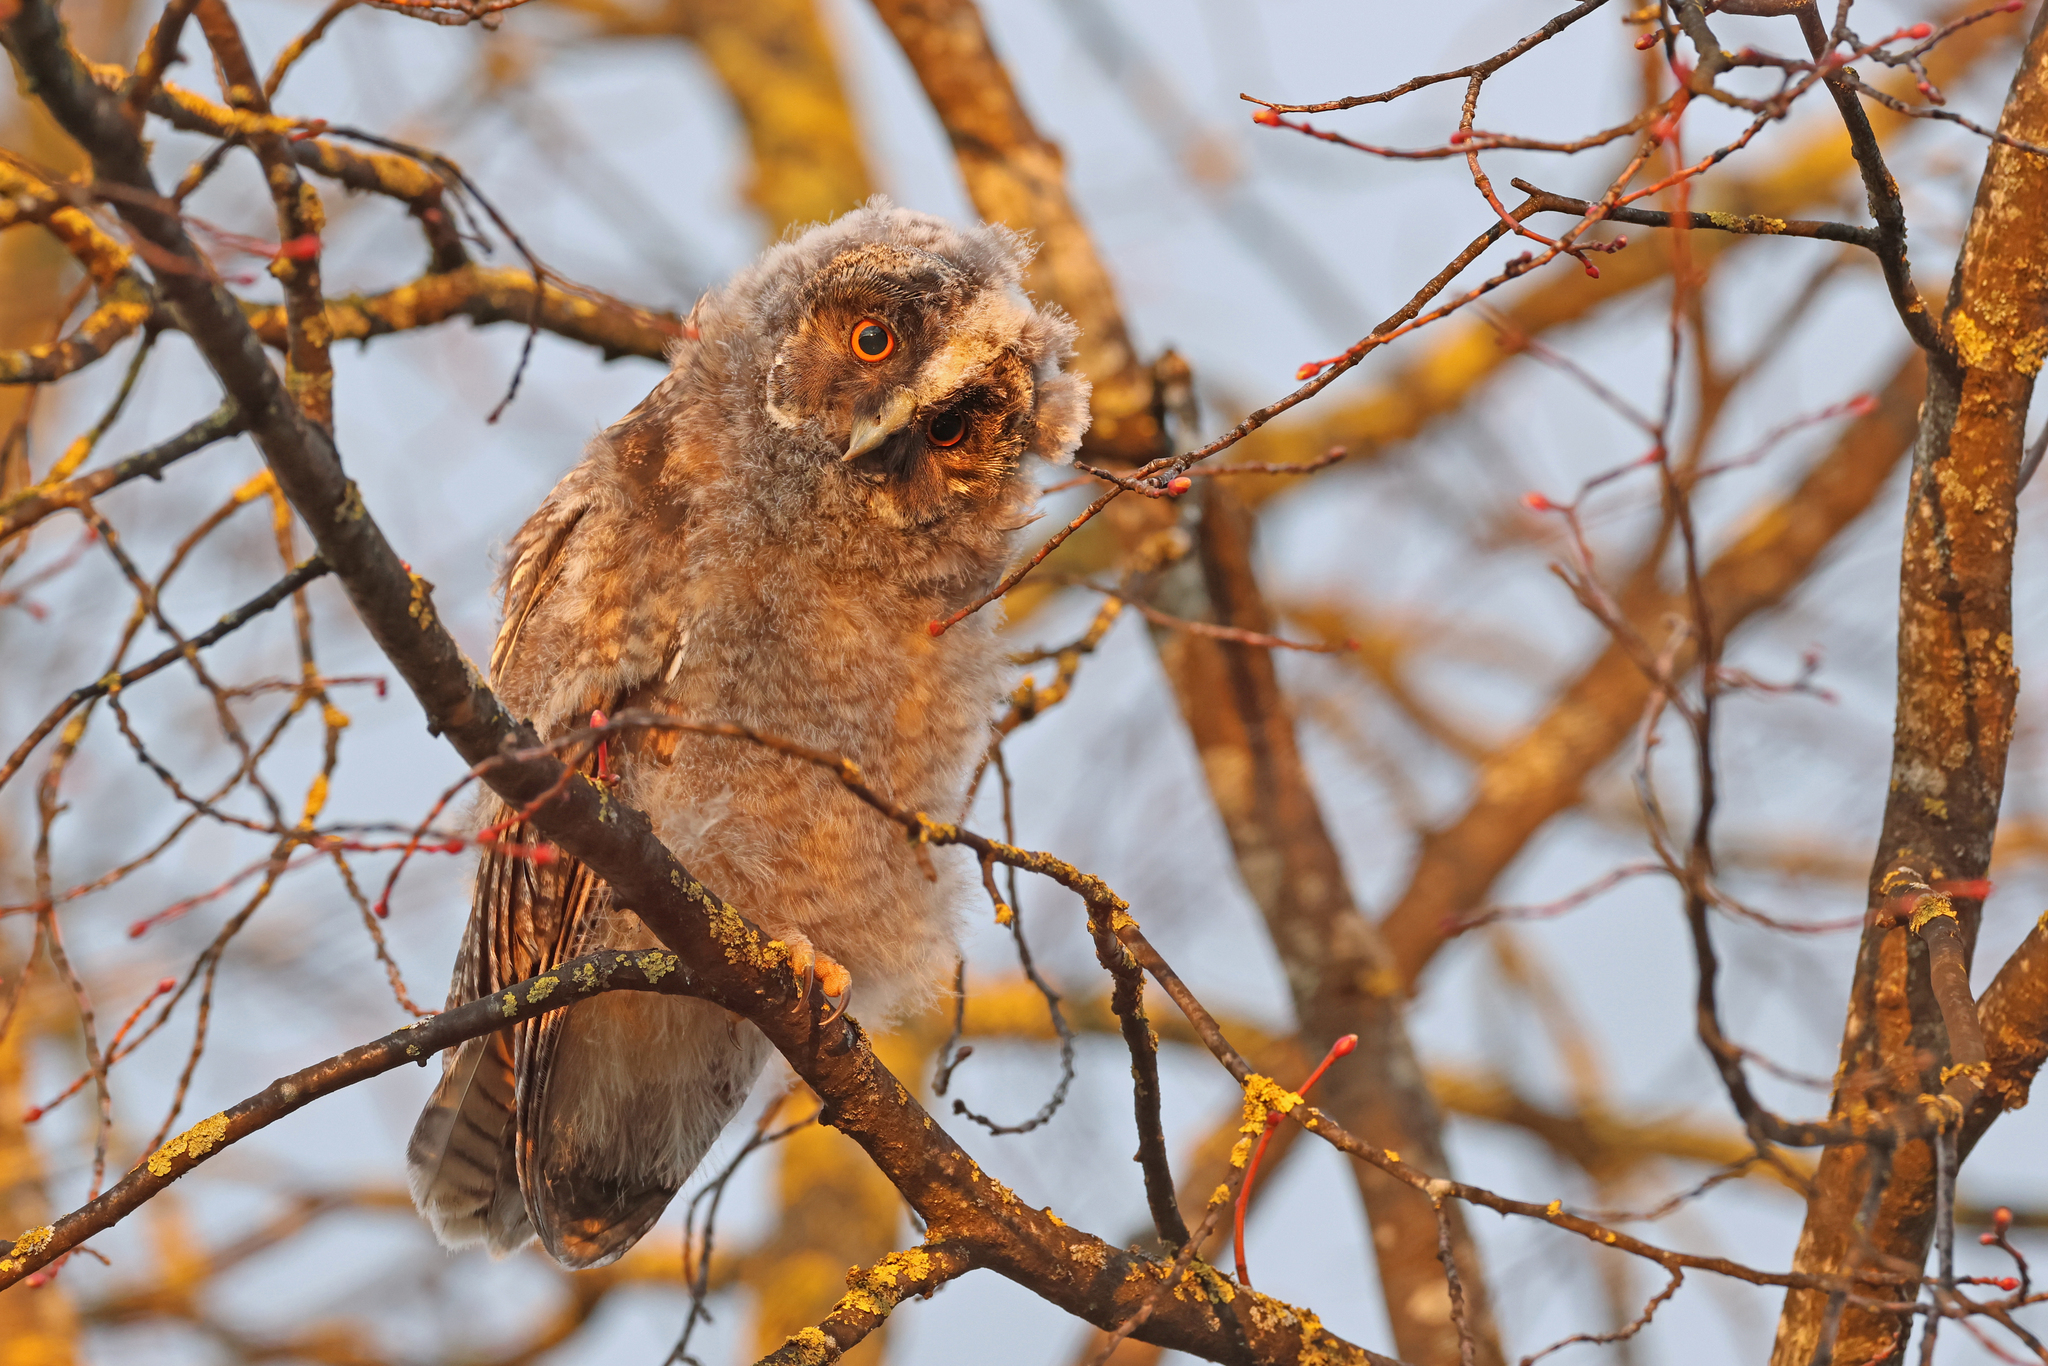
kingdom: Animalia
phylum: Chordata
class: Aves
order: Strigiformes
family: Strigidae
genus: Asio
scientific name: Asio otus
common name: Long-eared owl
